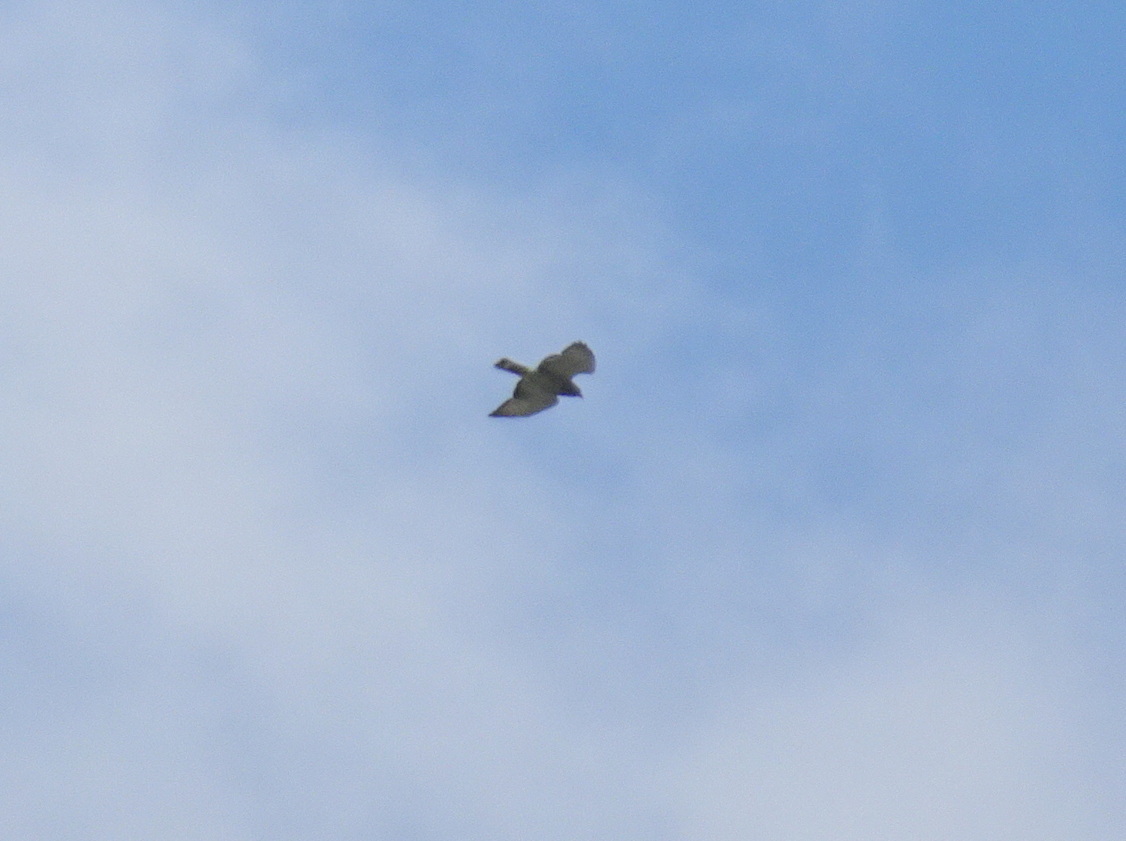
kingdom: Animalia
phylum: Chordata
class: Aves
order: Accipitriformes
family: Accipitridae
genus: Buteo
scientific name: Buteo platypterus
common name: Broad-winged hawk
